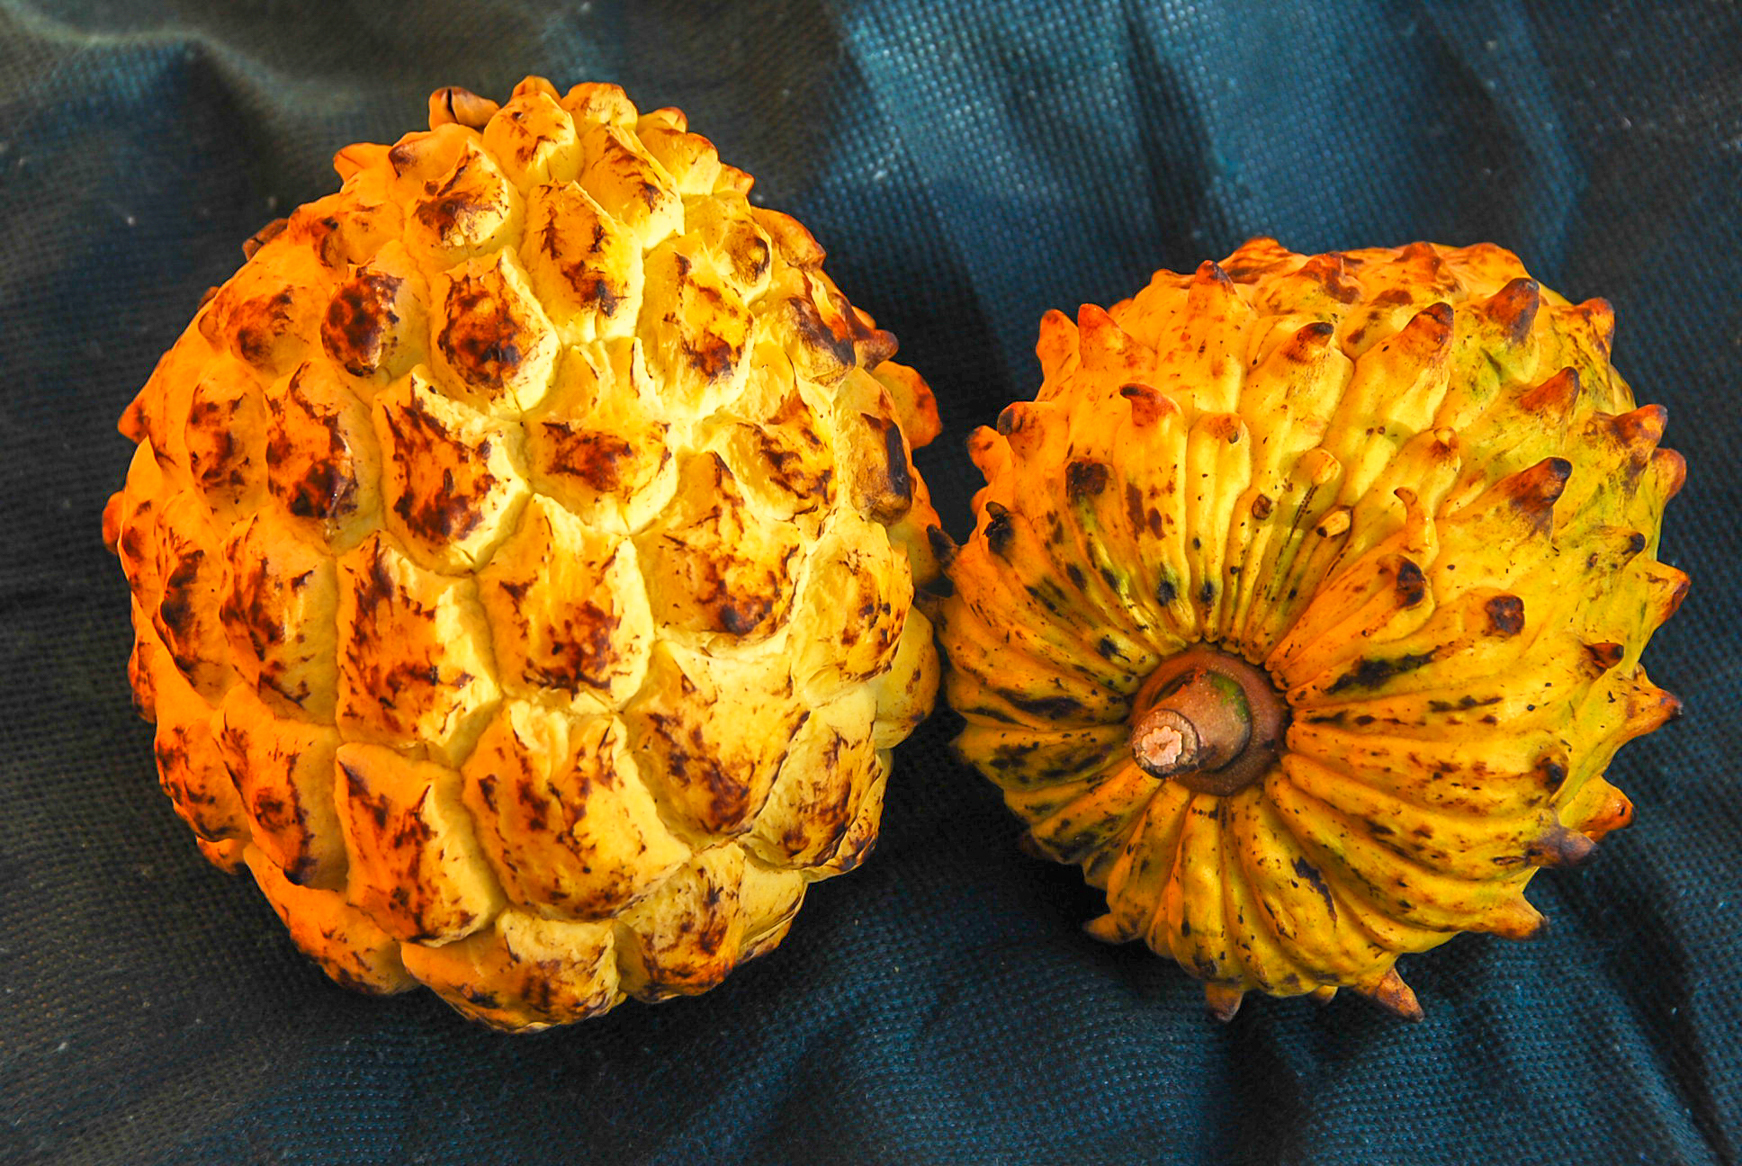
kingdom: Plantae
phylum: Tracheophyta
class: Magnoliopsida
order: Magnoliales
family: Annonaceae
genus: Annona
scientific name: Annona mucosa
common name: Sugar apple
